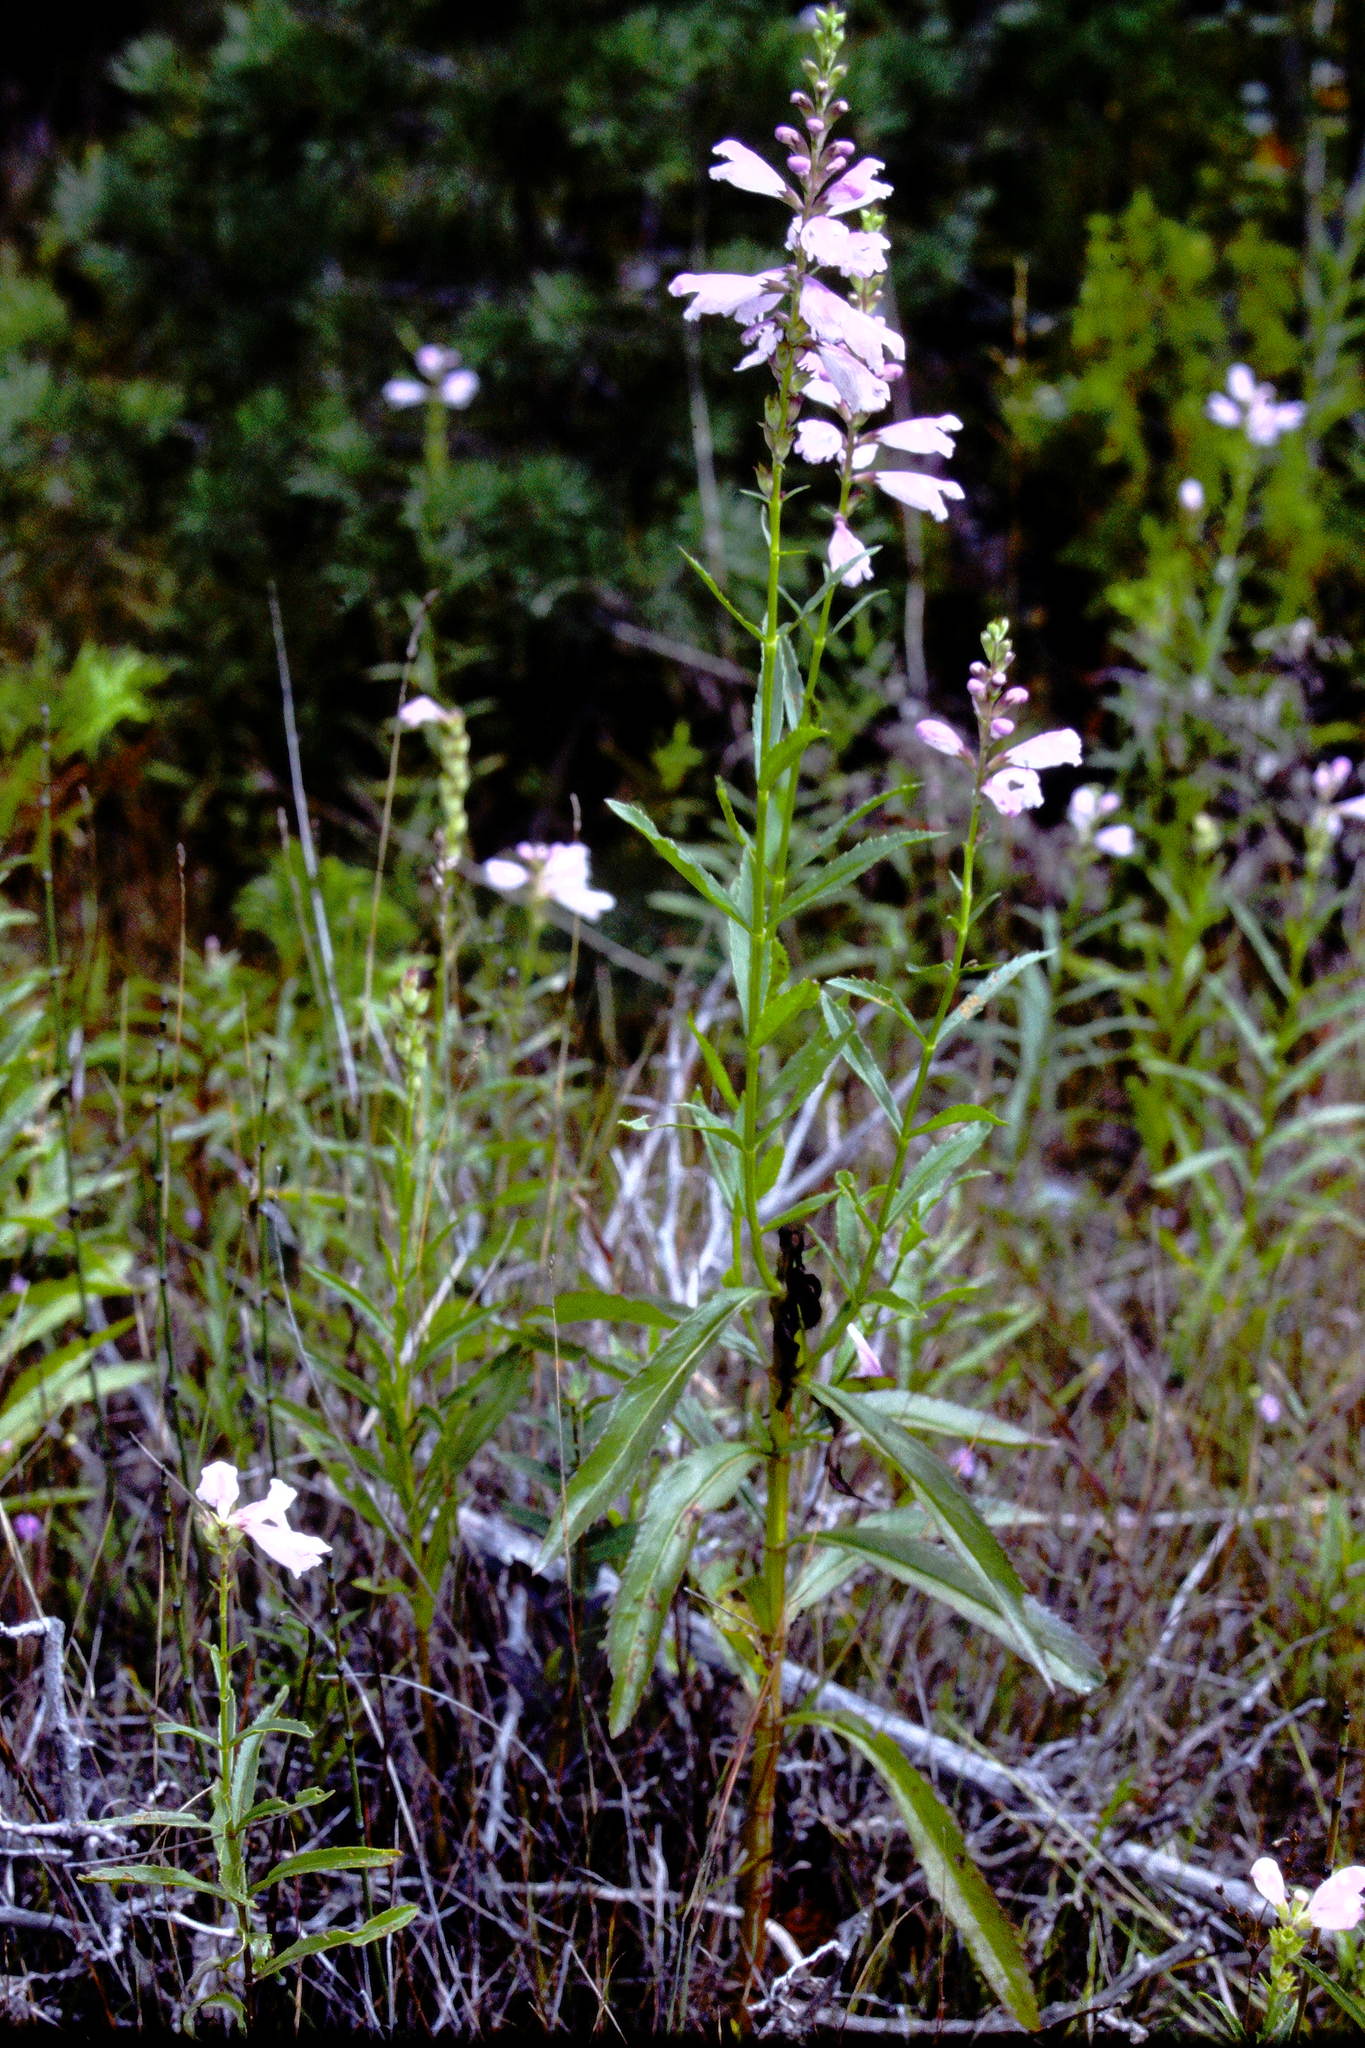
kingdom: Plantae
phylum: Tracheophyta
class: Magnoliopsida
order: Lamiales
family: Lamiaceae
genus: Physostegia
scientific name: Physostegia virginiana
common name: Obedient-plant
